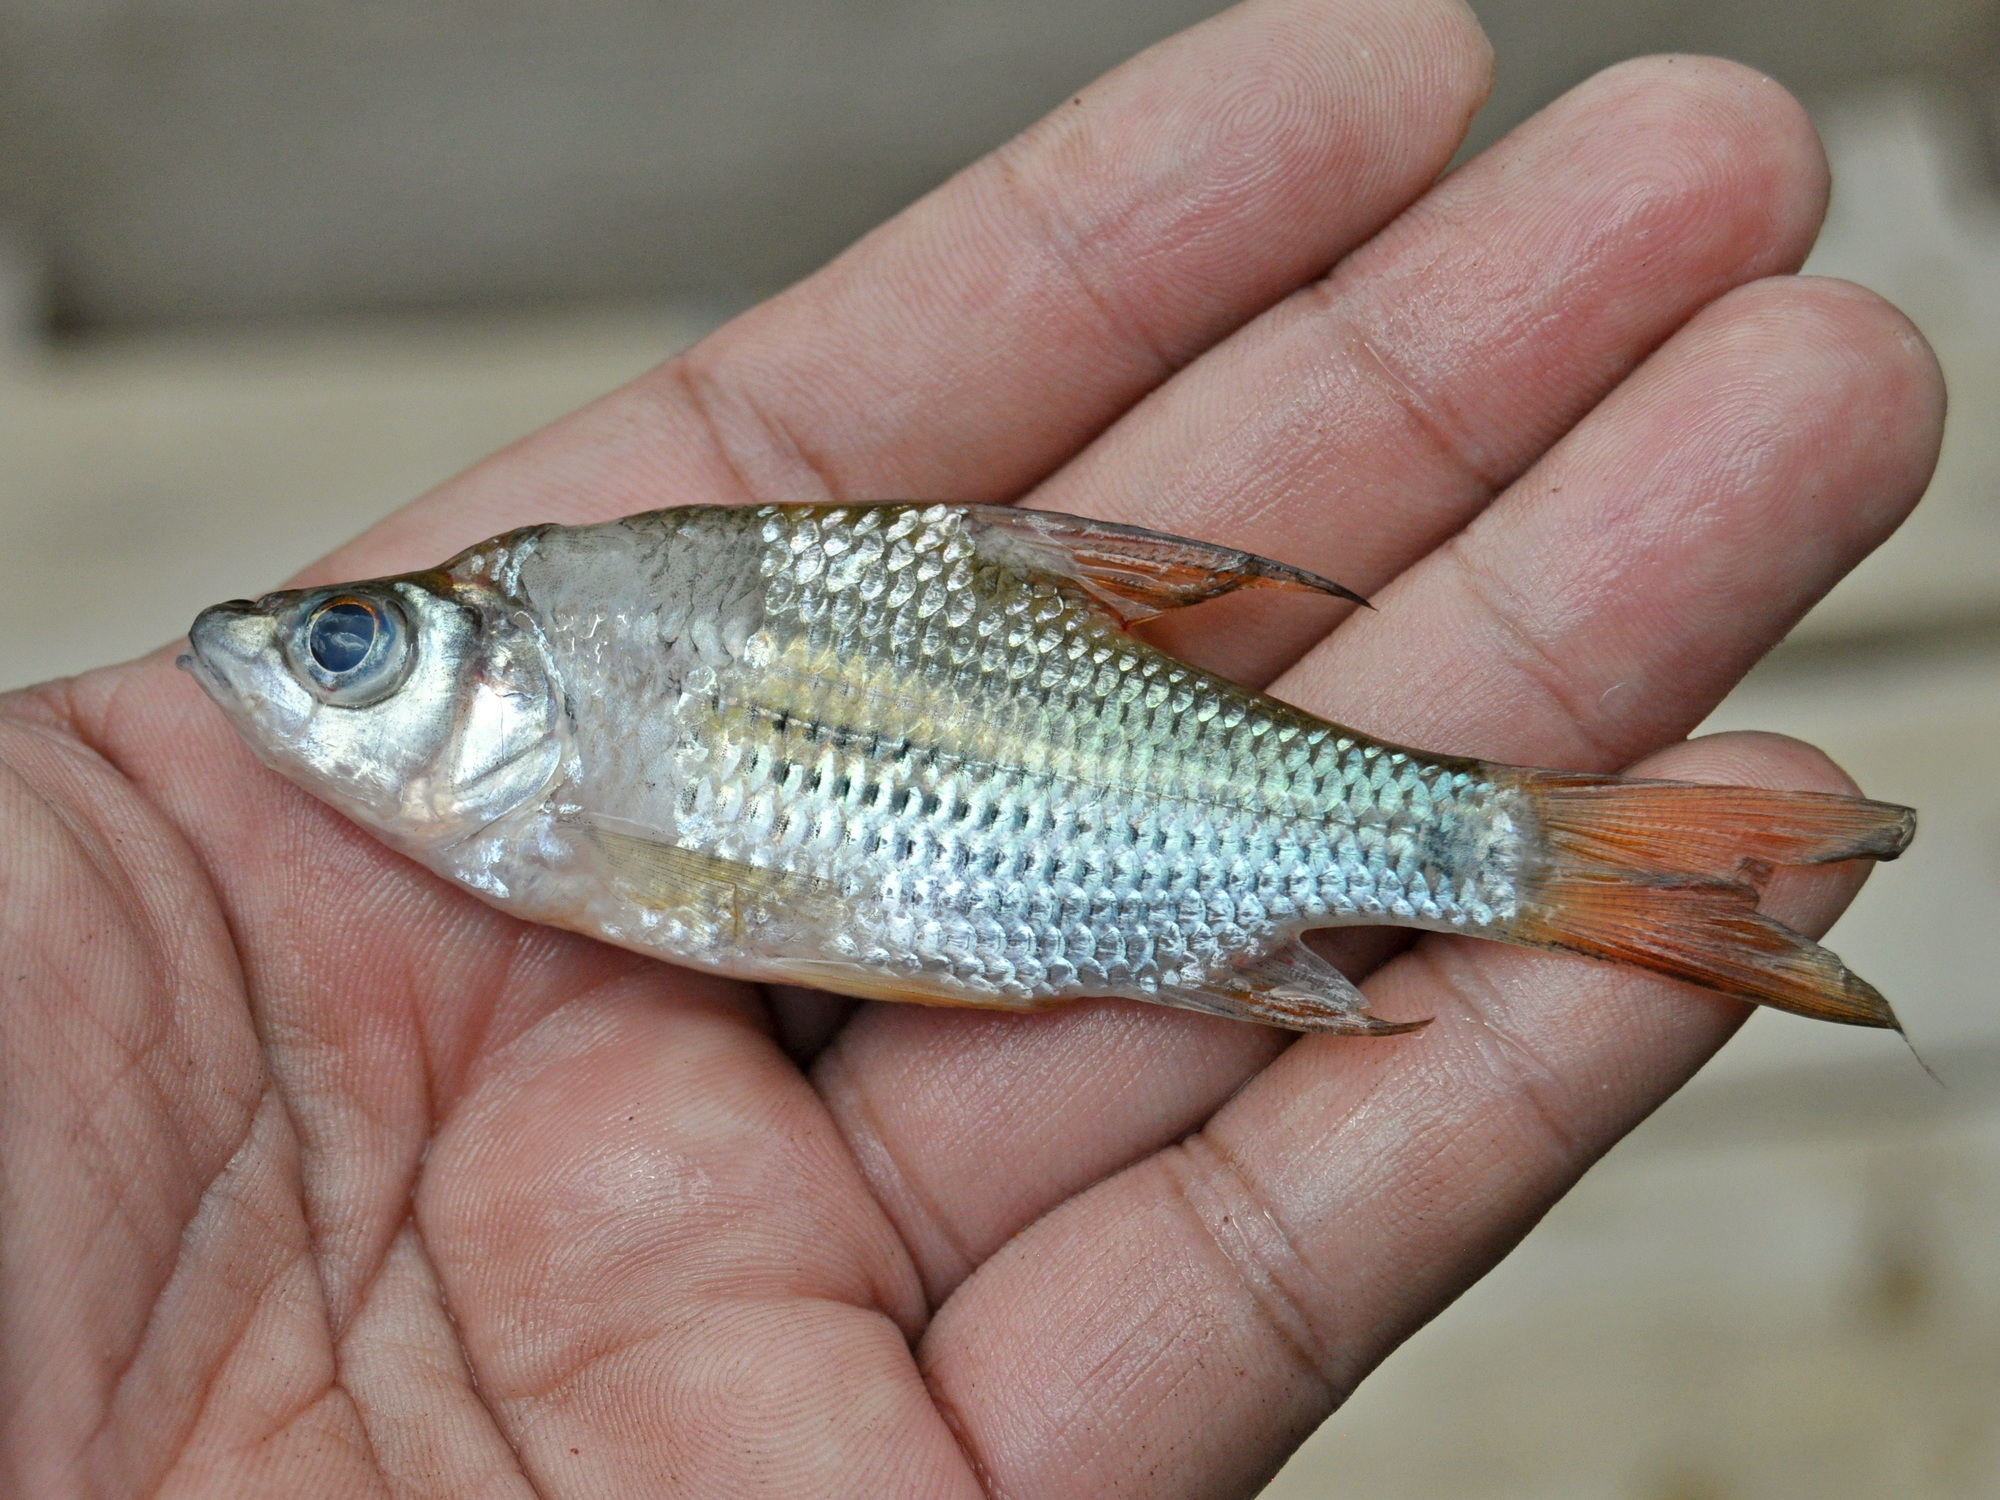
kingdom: Animalia
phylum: Chordata
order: Cypriniformes
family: Cyprinidae
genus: Cyclocheilichthys
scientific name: Cyclocheilichthys apogon
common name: Beardless barb
